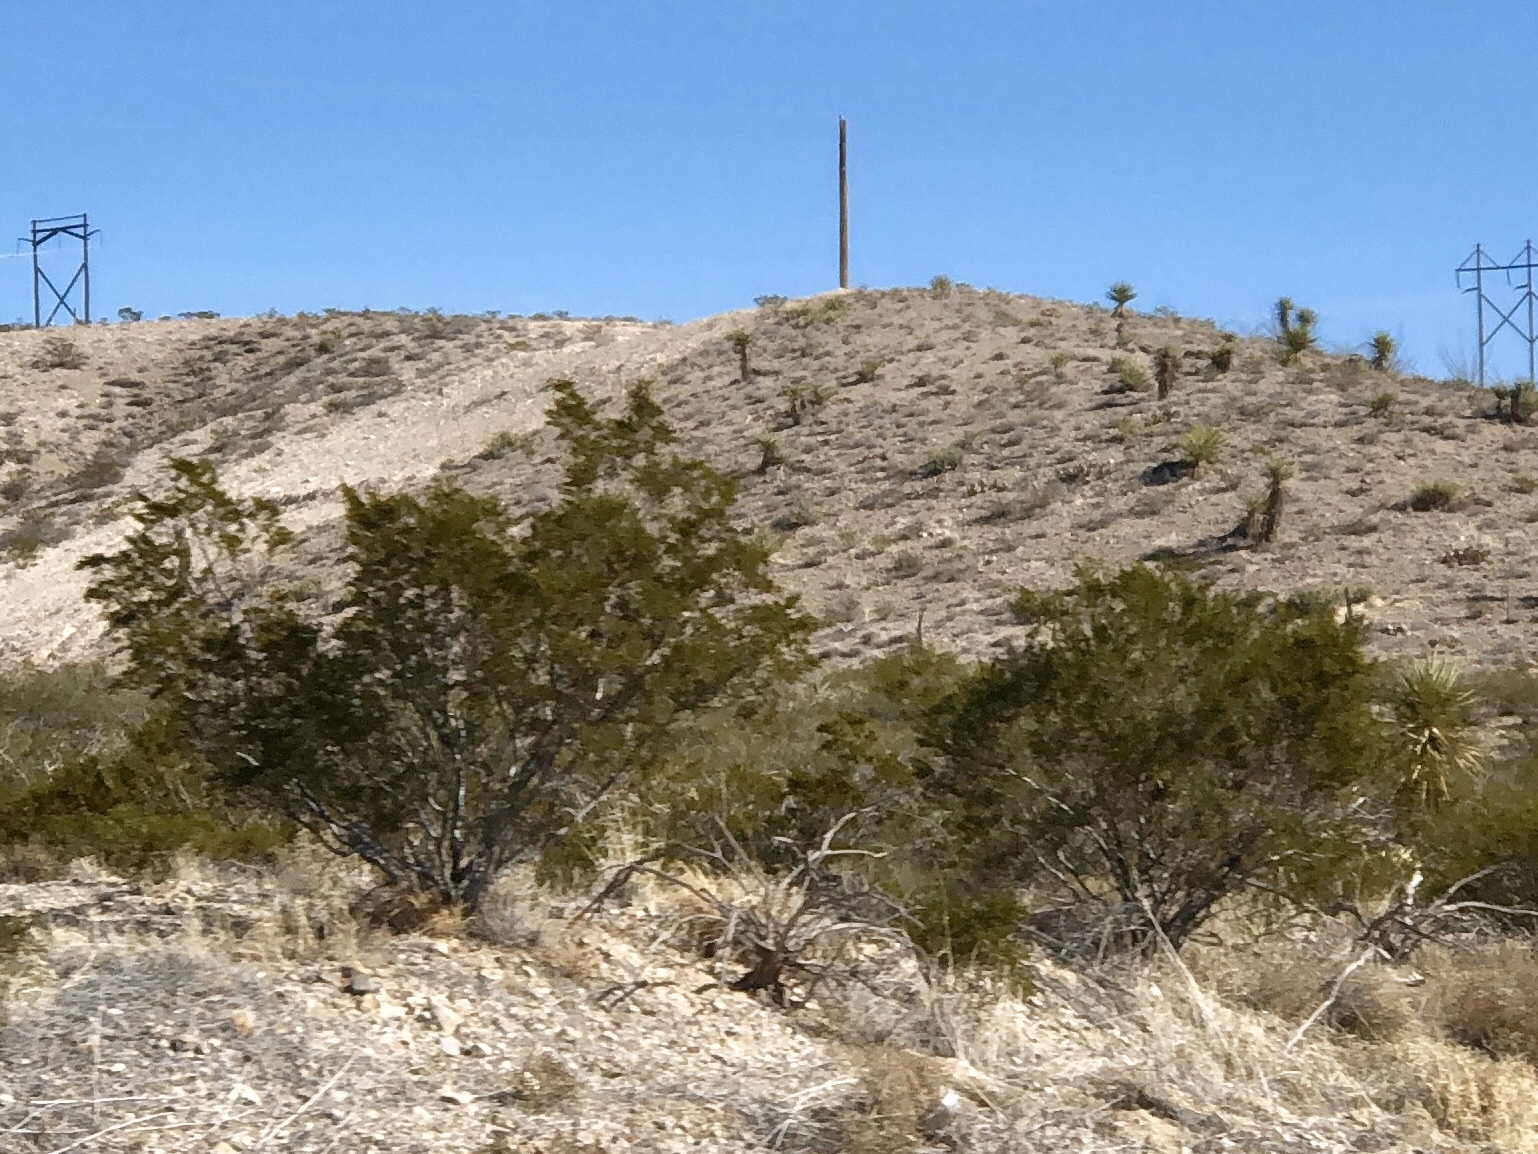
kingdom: Plantae
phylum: Tracheophyta
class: Magnoliopsida
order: Zygophyllales
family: Zygophyllaceae
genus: Larrea
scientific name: Larrea tridentata
